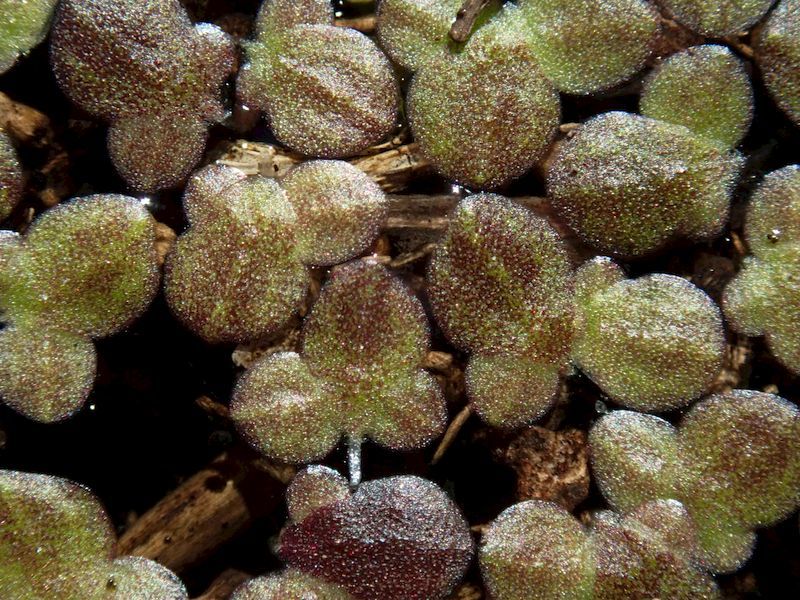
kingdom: Plantae
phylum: Tracheophyta
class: Liliopsida
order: Alismatales
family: Araceae
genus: Spirodela
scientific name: Spirodela polyrhiza
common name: Great duckweed
